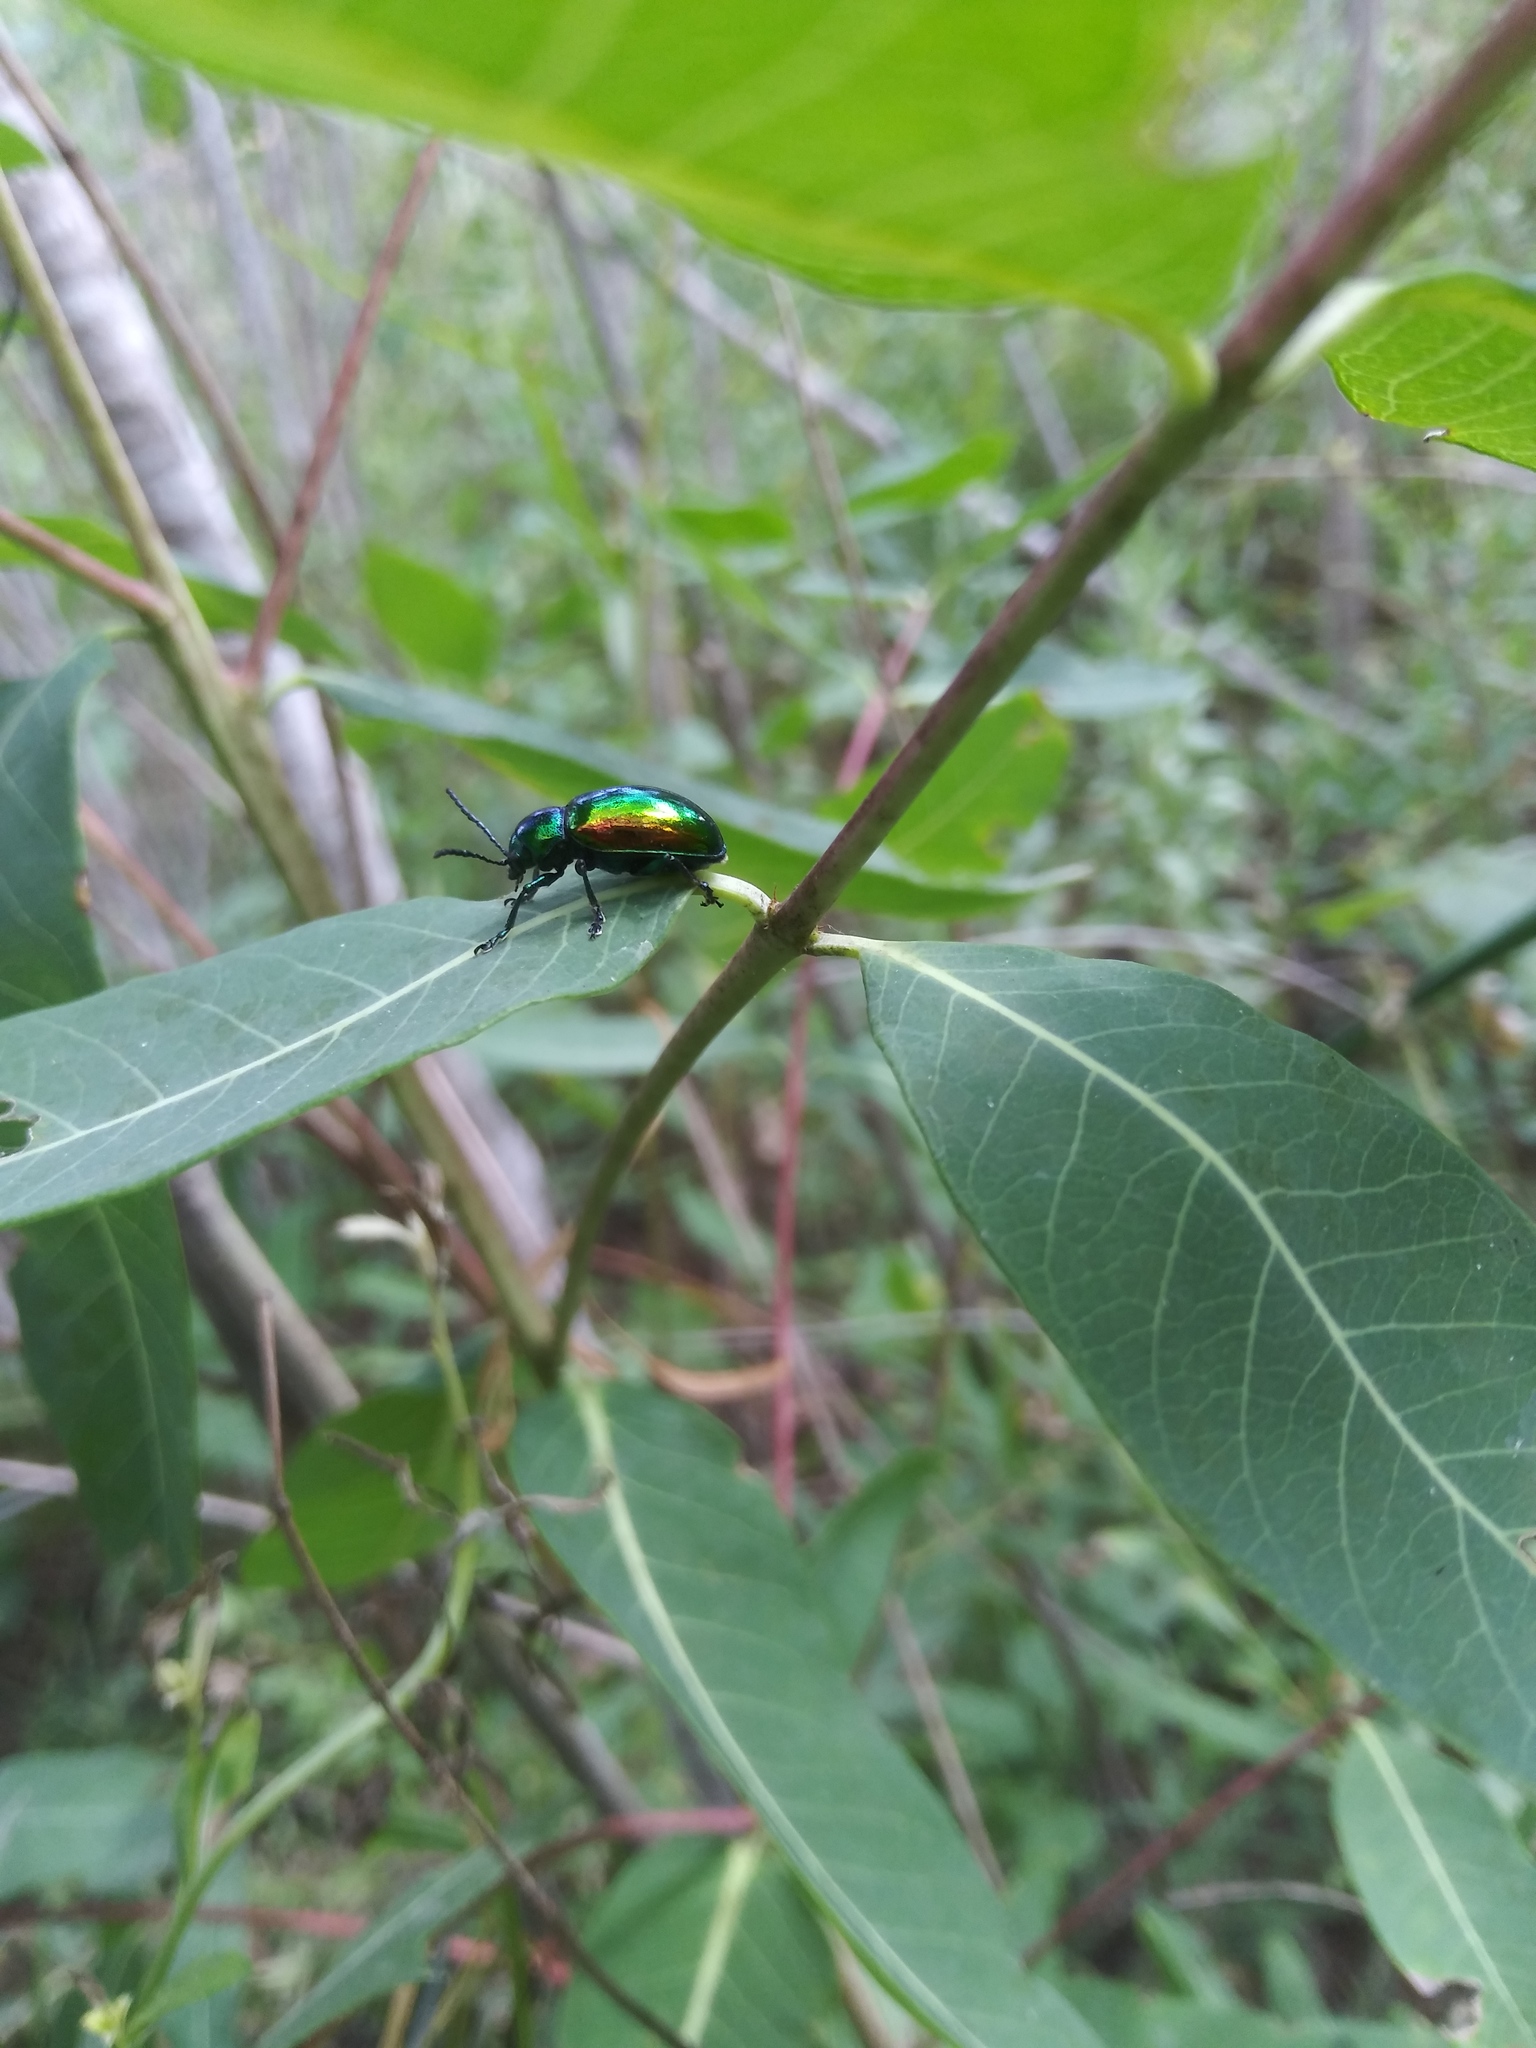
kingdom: Animalia
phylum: Arthropoda
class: Insecta
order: Coleoptera
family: Chrysomelidae
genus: Chrysochus
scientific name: Chrysochus auratus
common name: Dogbane leaf beetle
